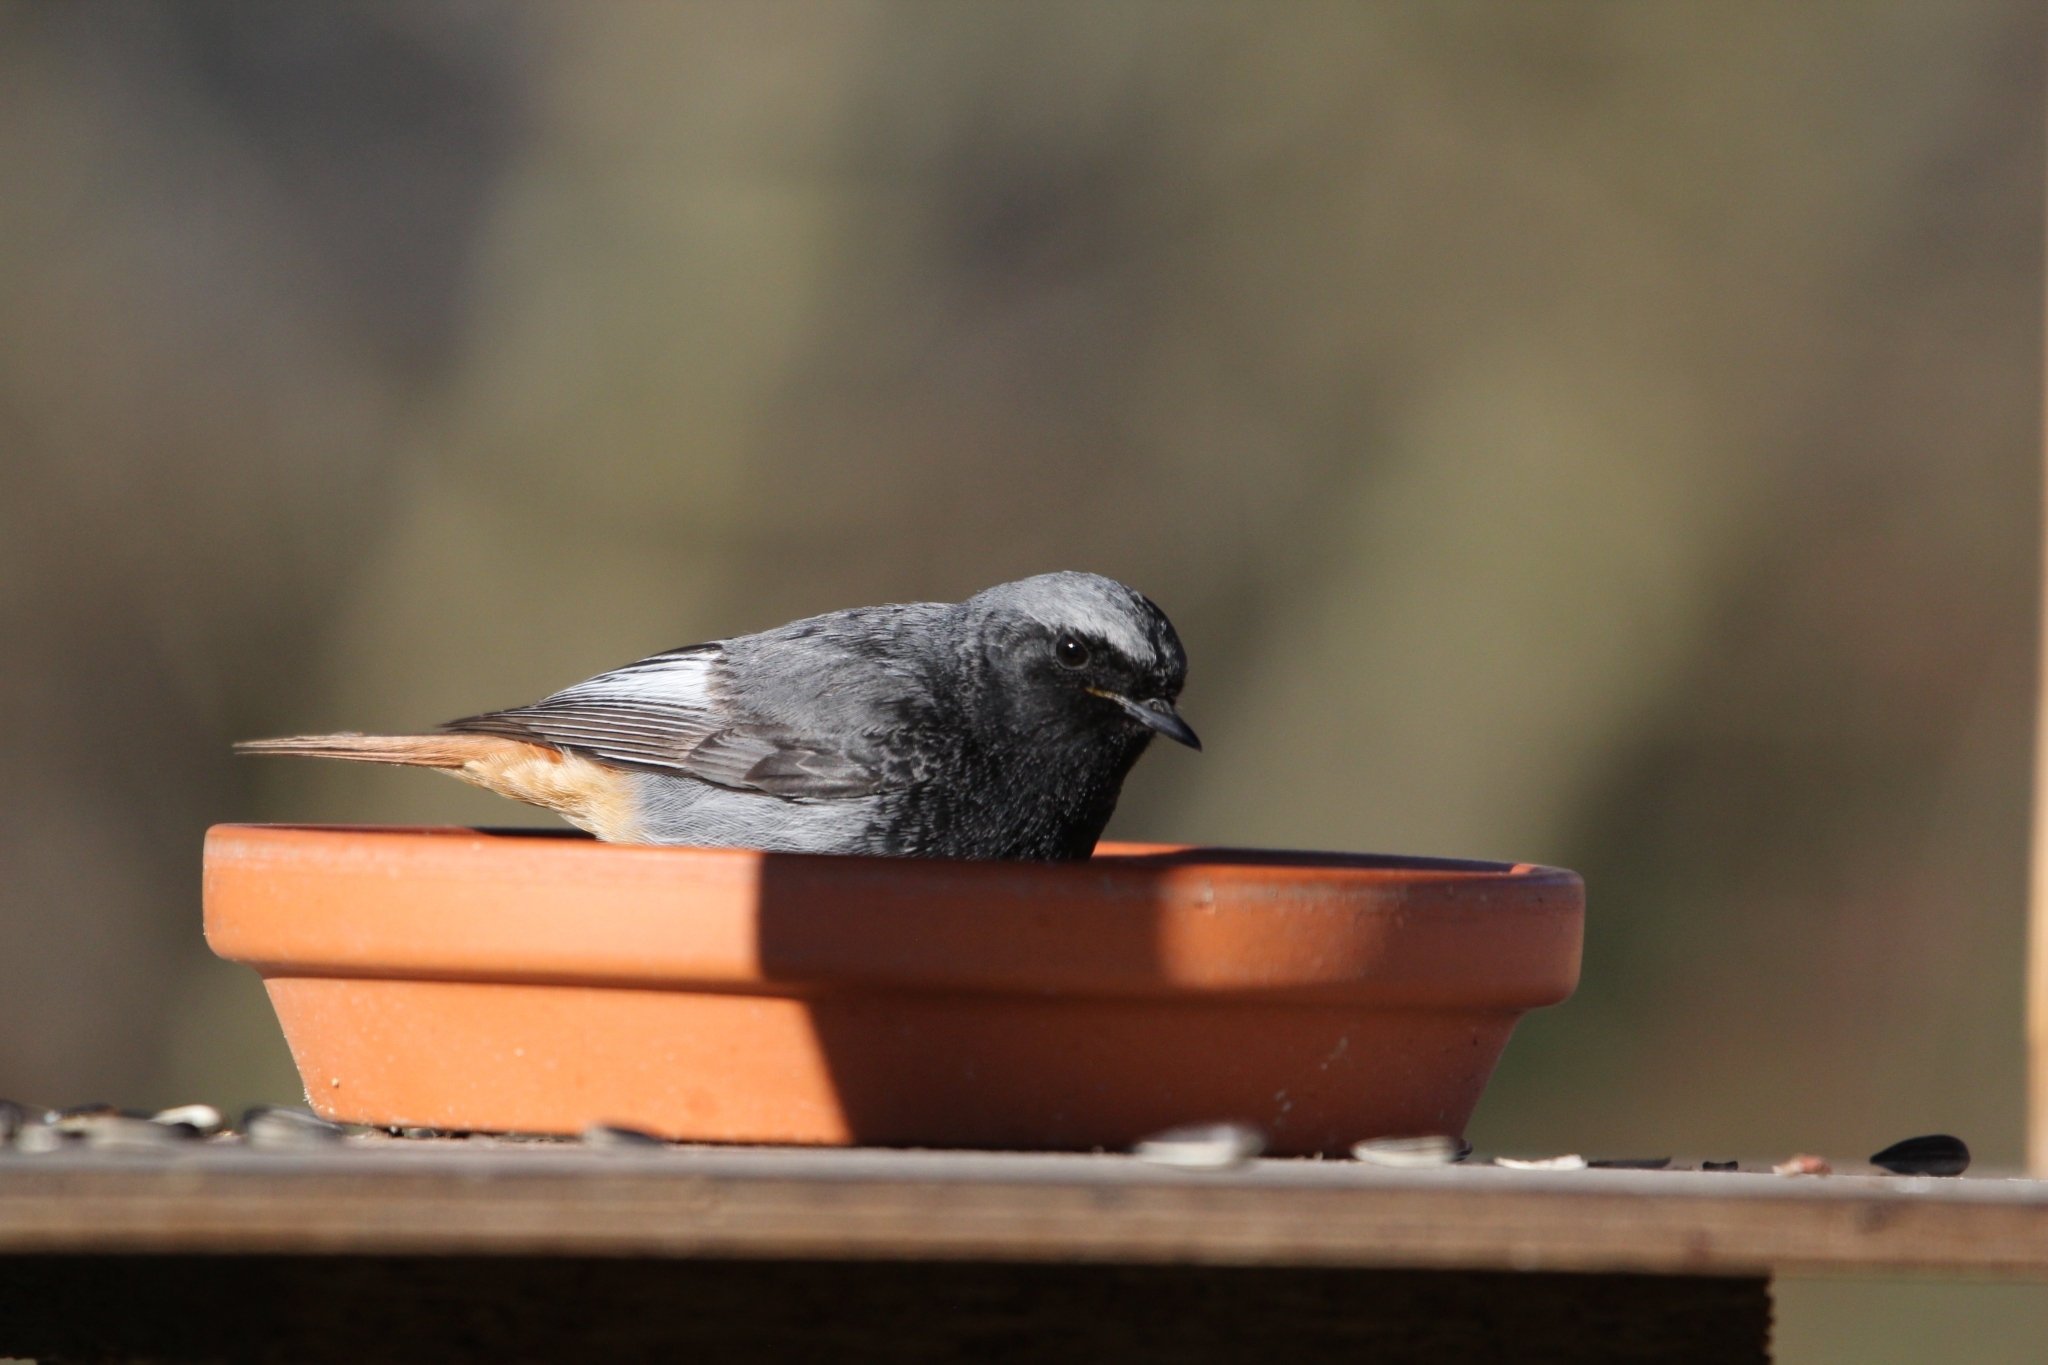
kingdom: Animalia
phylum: Chordata
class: Aves
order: Passeriformes
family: Muscicapidae
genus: Phoenicurus
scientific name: Phoenicurus ochruros
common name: Black redstart
